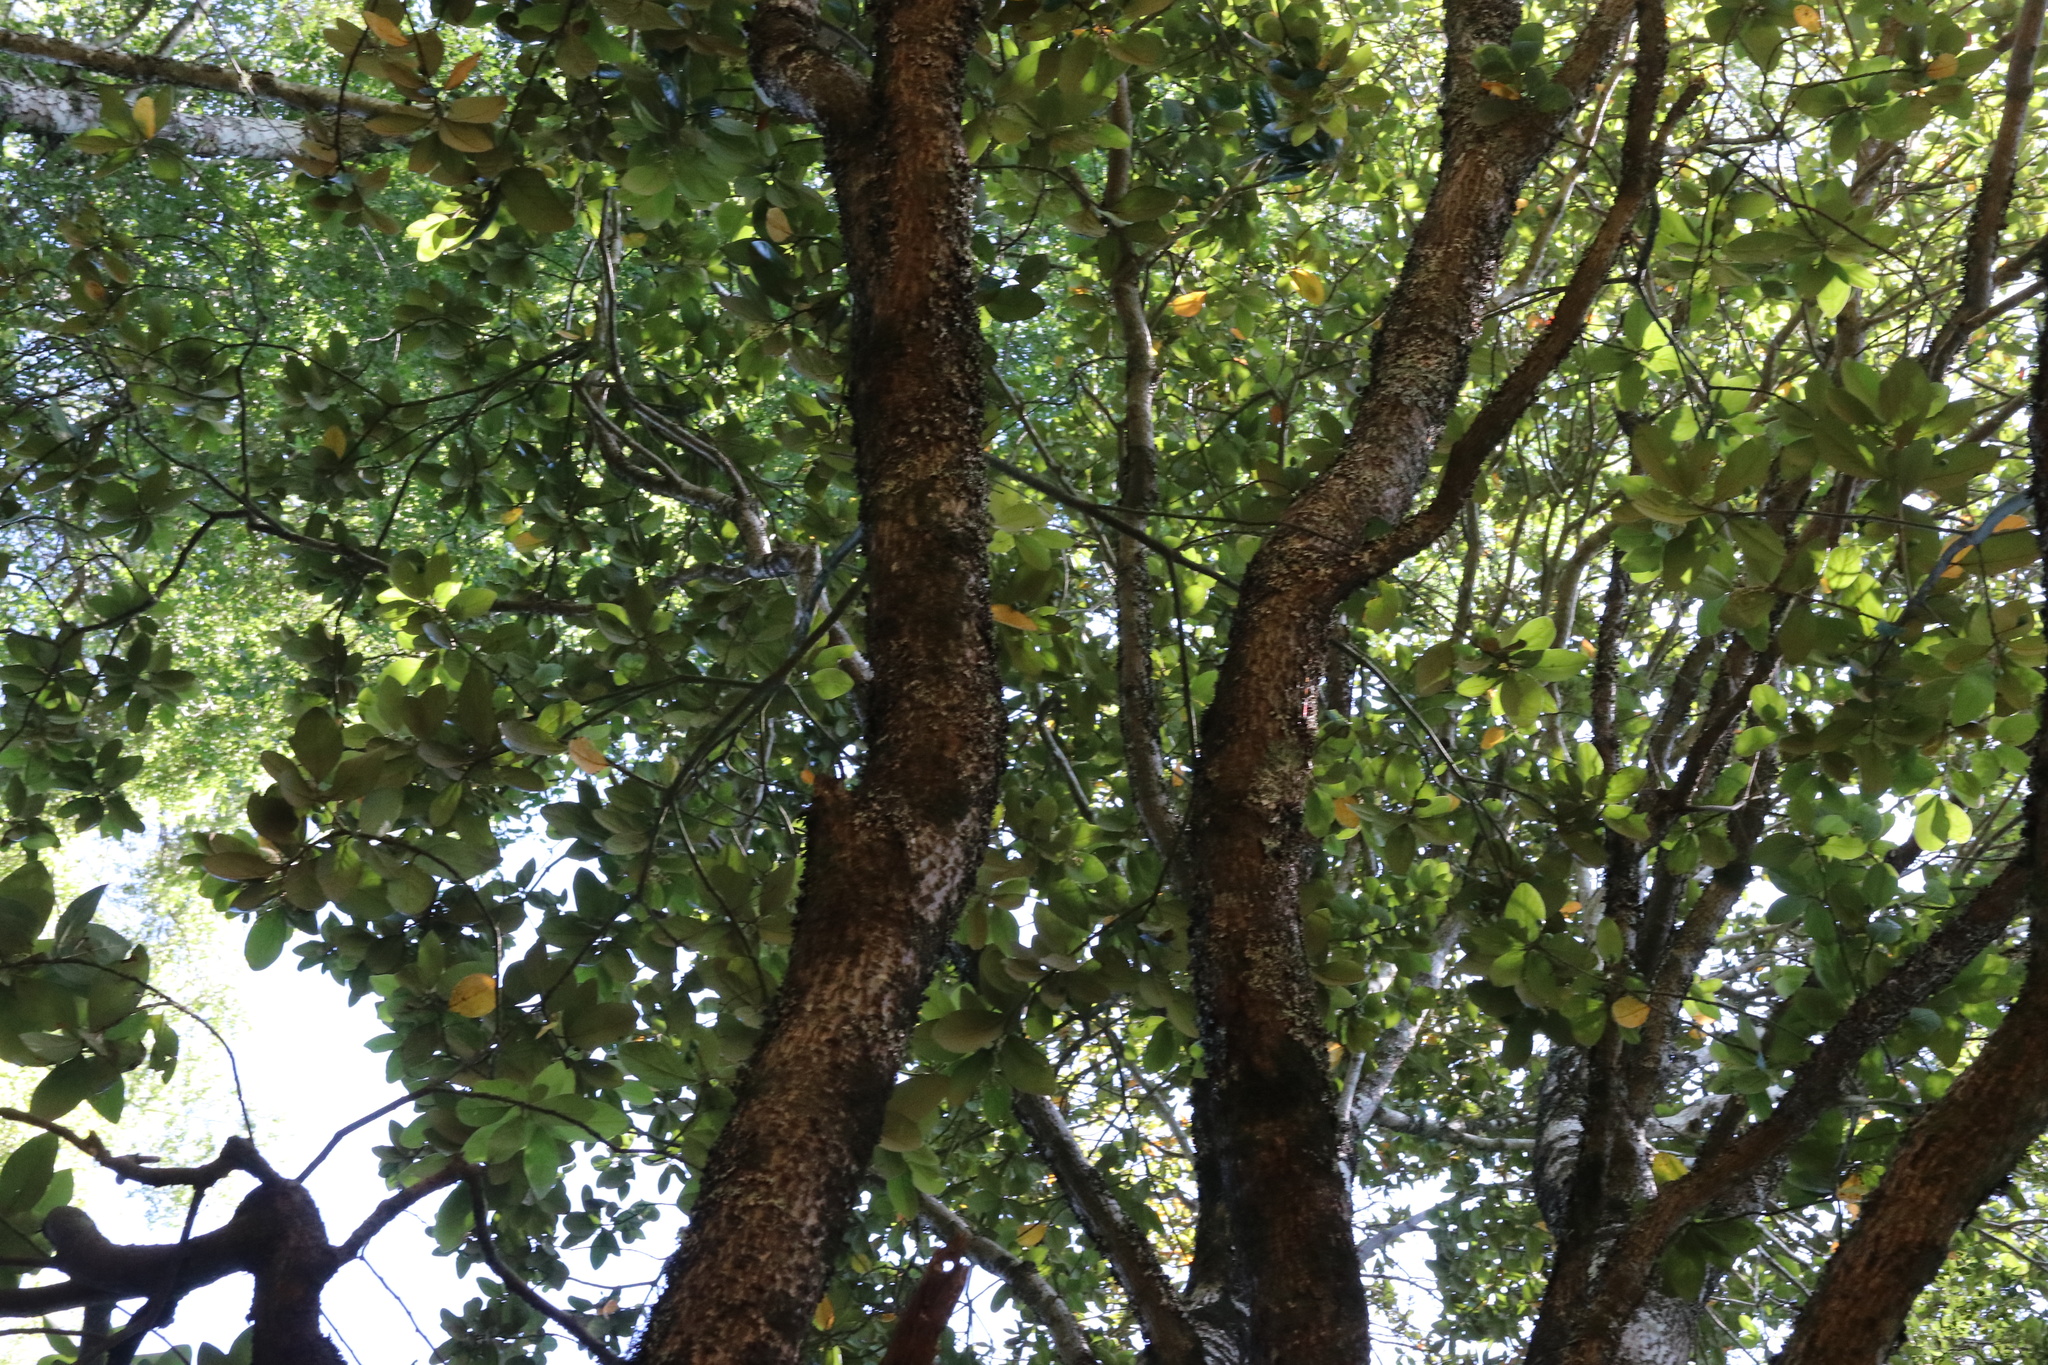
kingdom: Plantae
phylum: Tracheophyta
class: Magnoliopsida
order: Laurales
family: Lauraceae
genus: Persea
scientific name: Persea lingue
